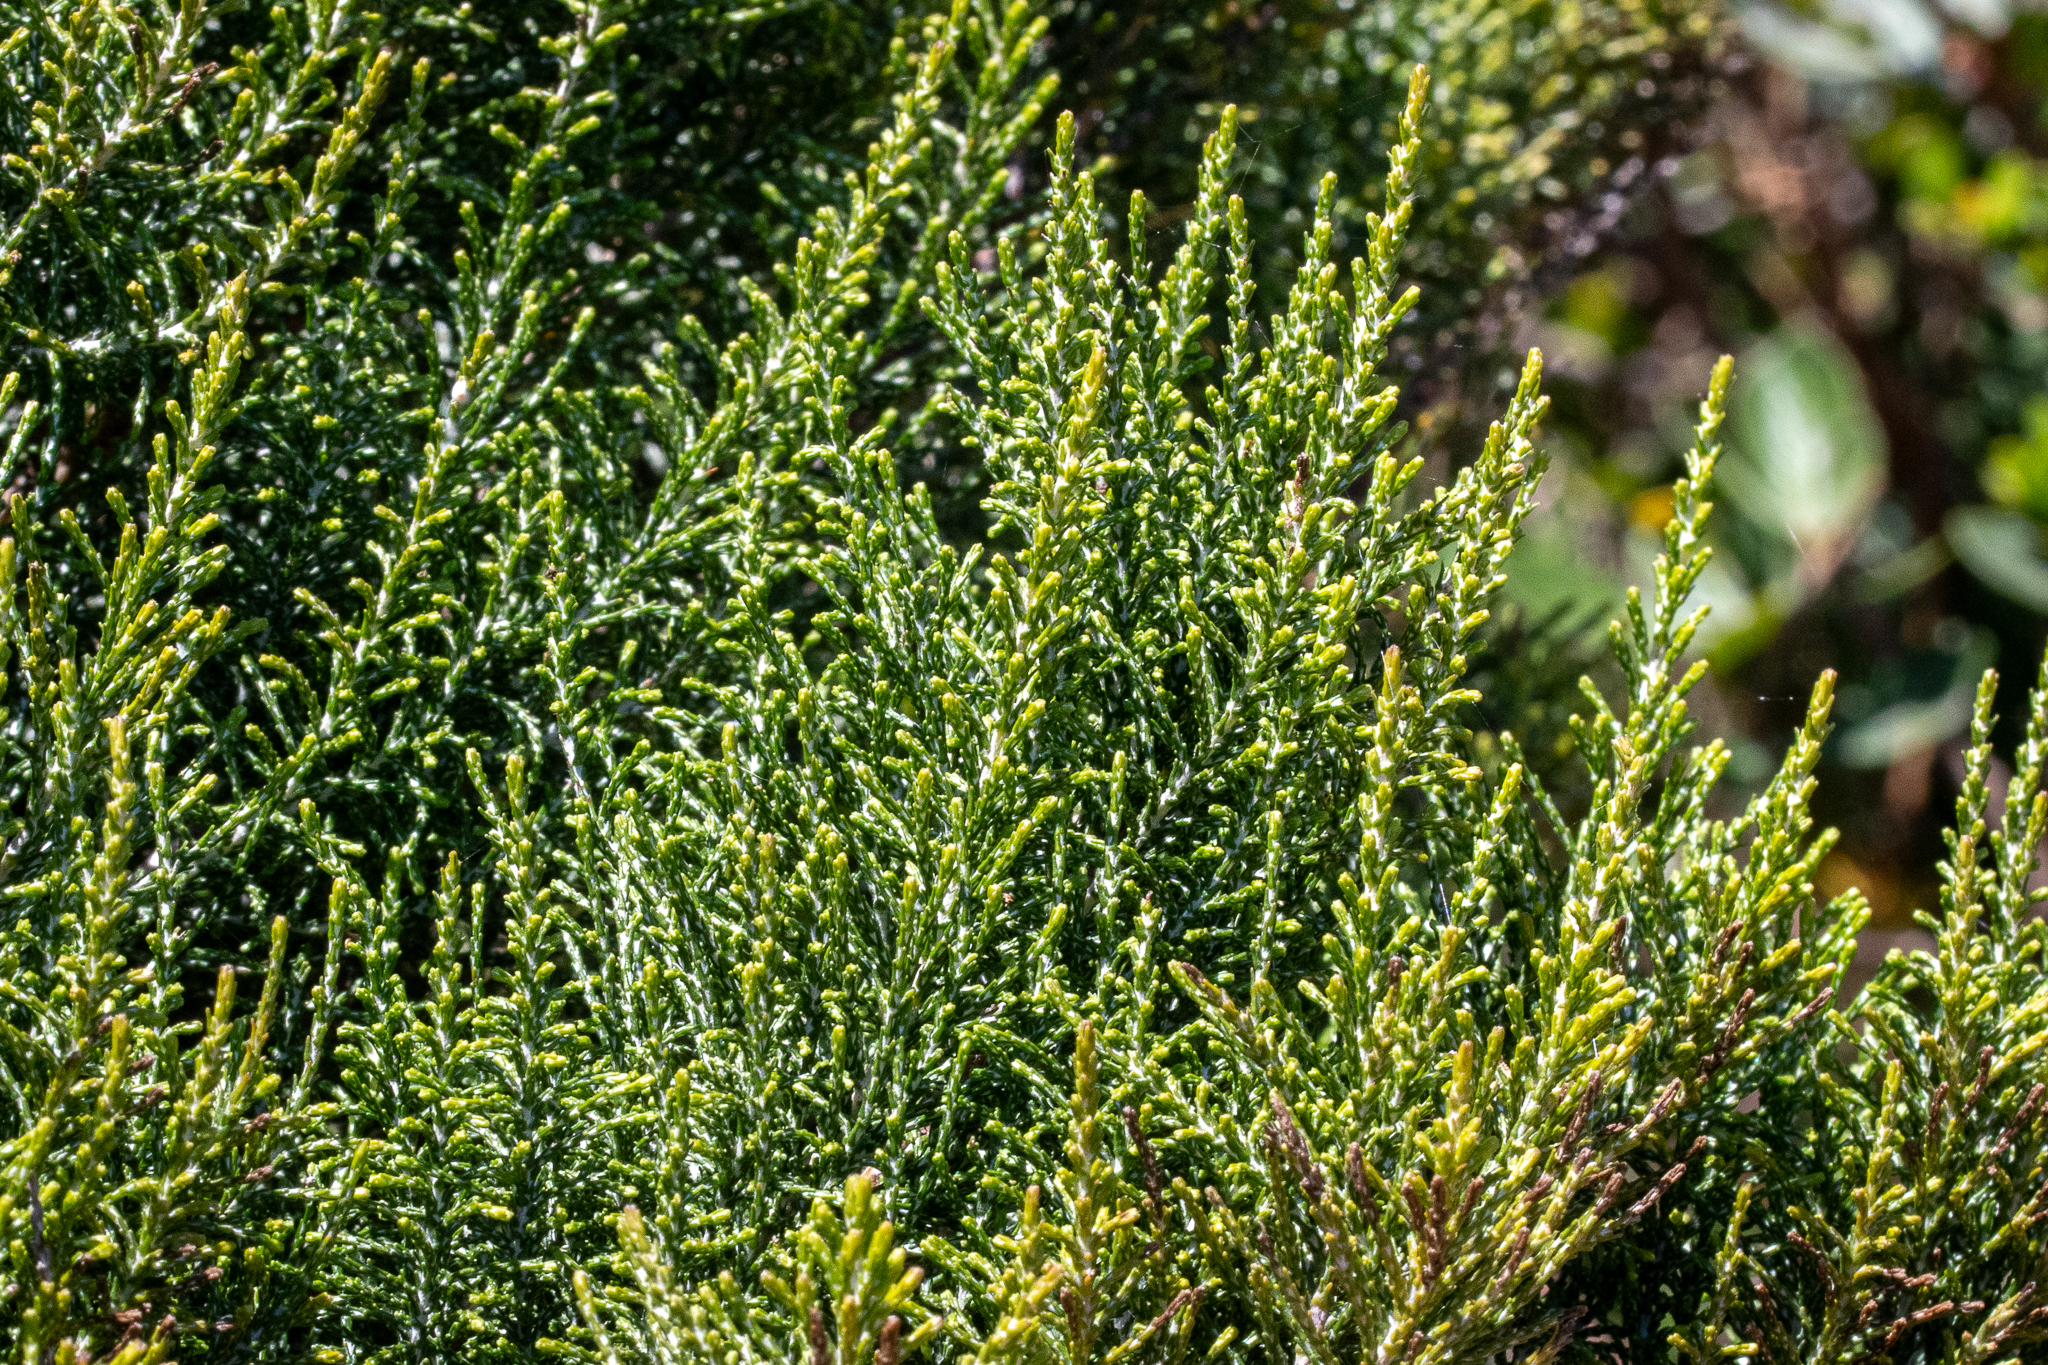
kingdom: Plantae
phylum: Tracheophyta
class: Magnoliopsida
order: Asterales
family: Asteraceae
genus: Dicerothamnus
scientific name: Dicerothamnus rhinocerotis
